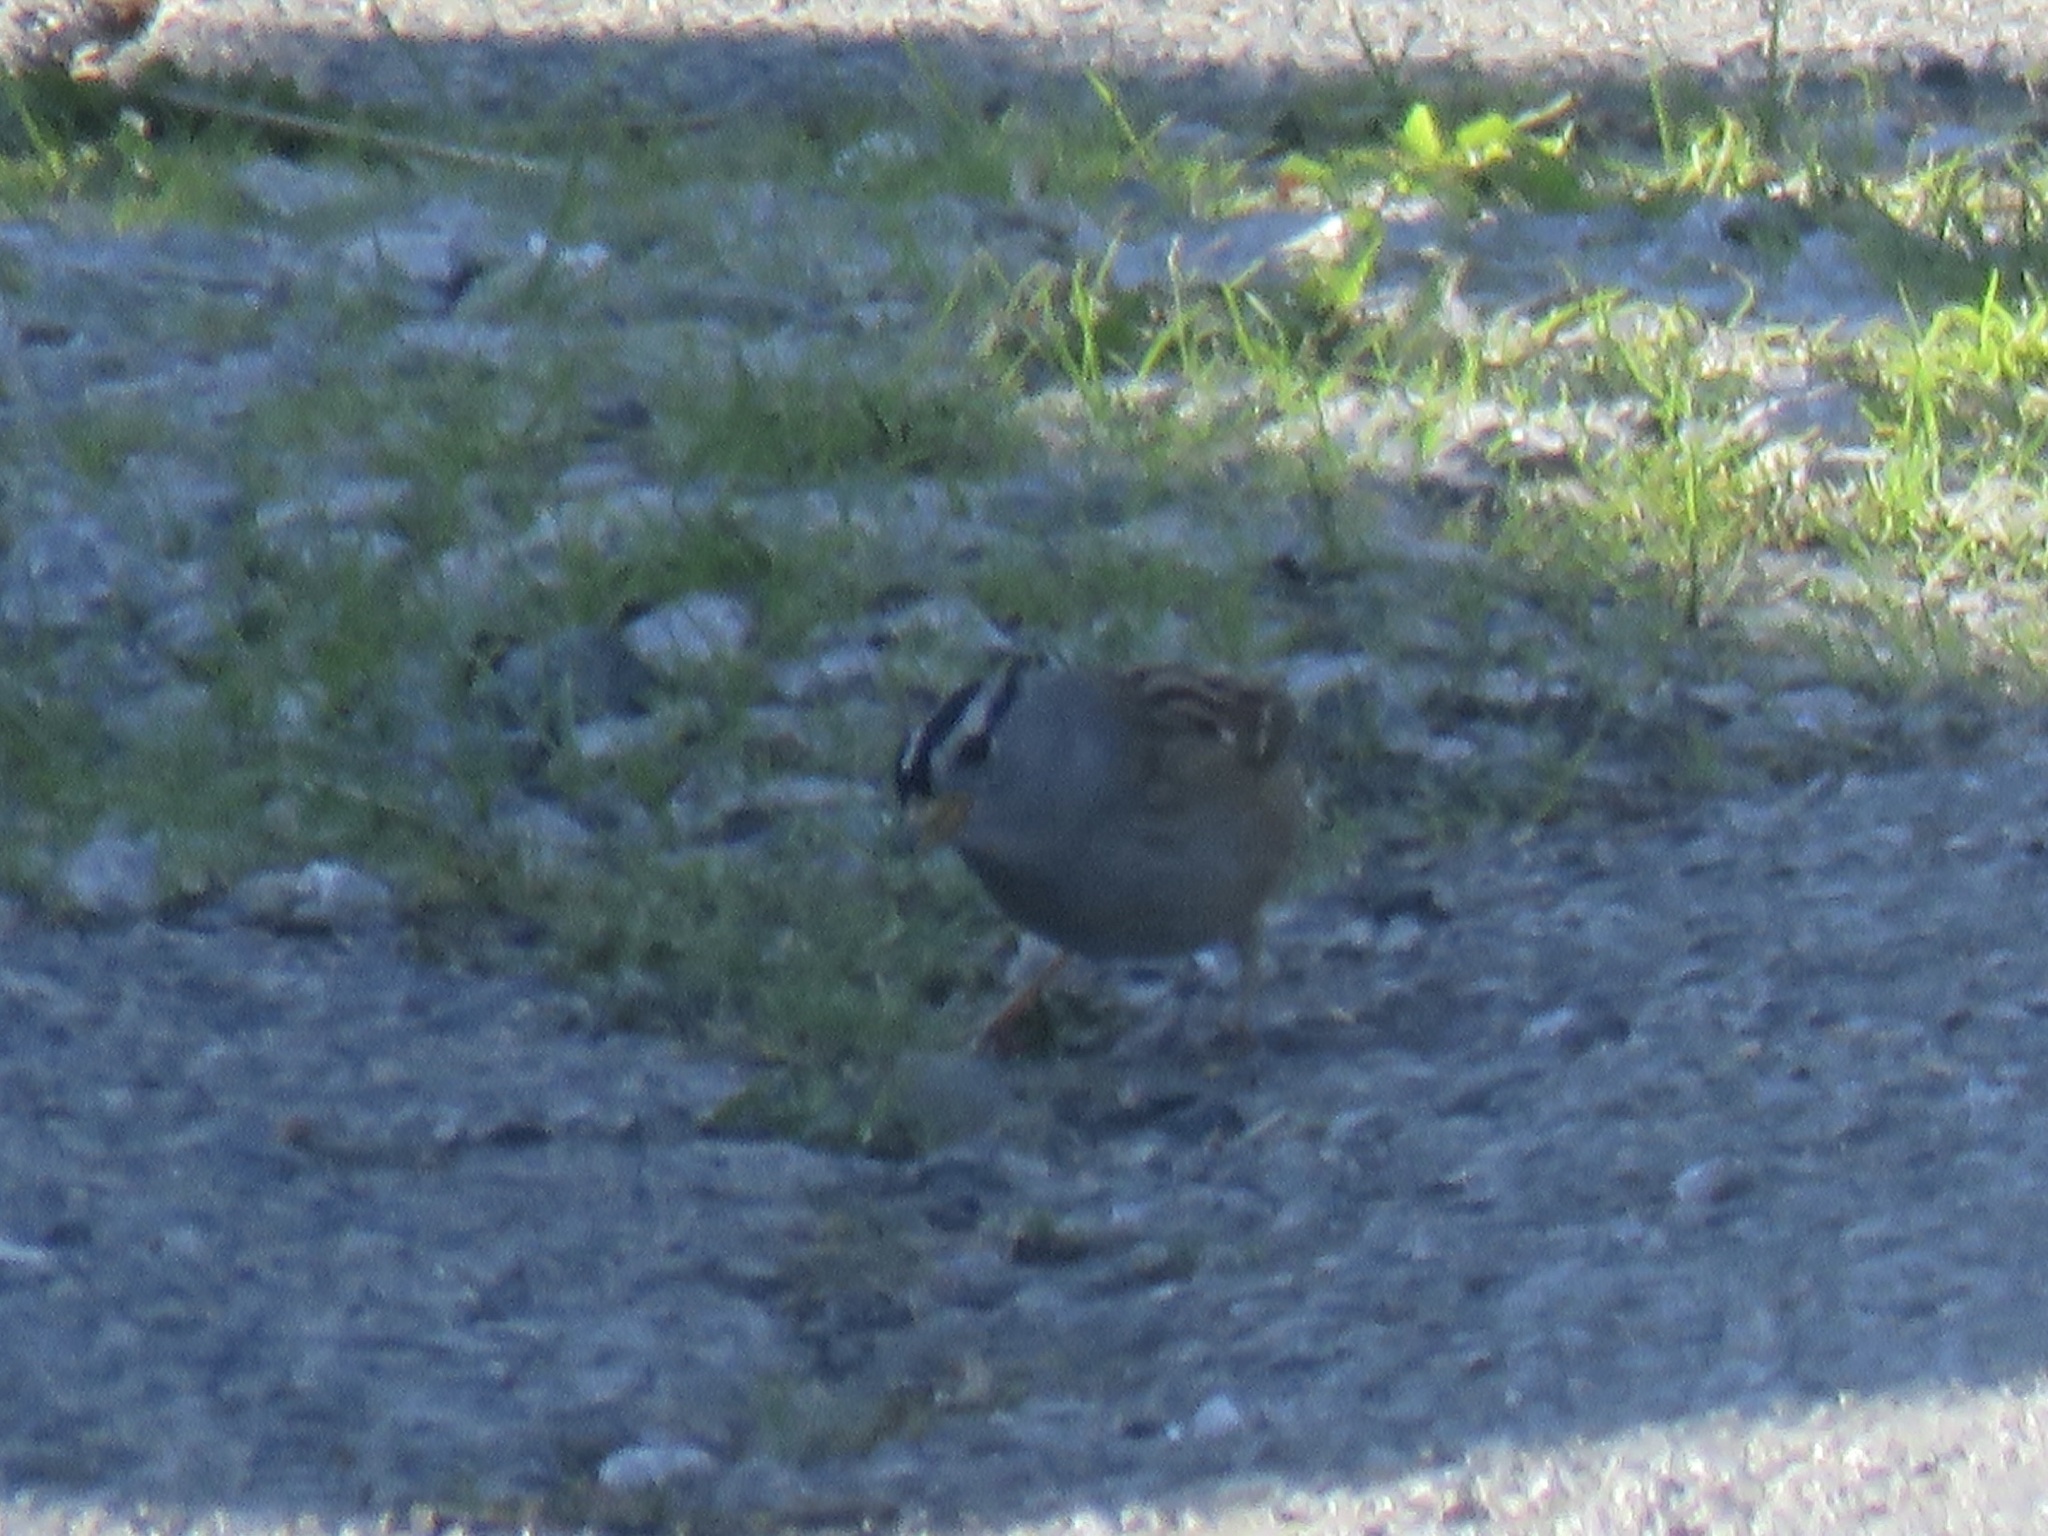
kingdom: Animalia
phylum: Chordata
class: Aves
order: Passeriformes
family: Passerellidae
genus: Zonotrichia
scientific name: Zonotrichia leucophrys
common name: White-crowned sparrow
